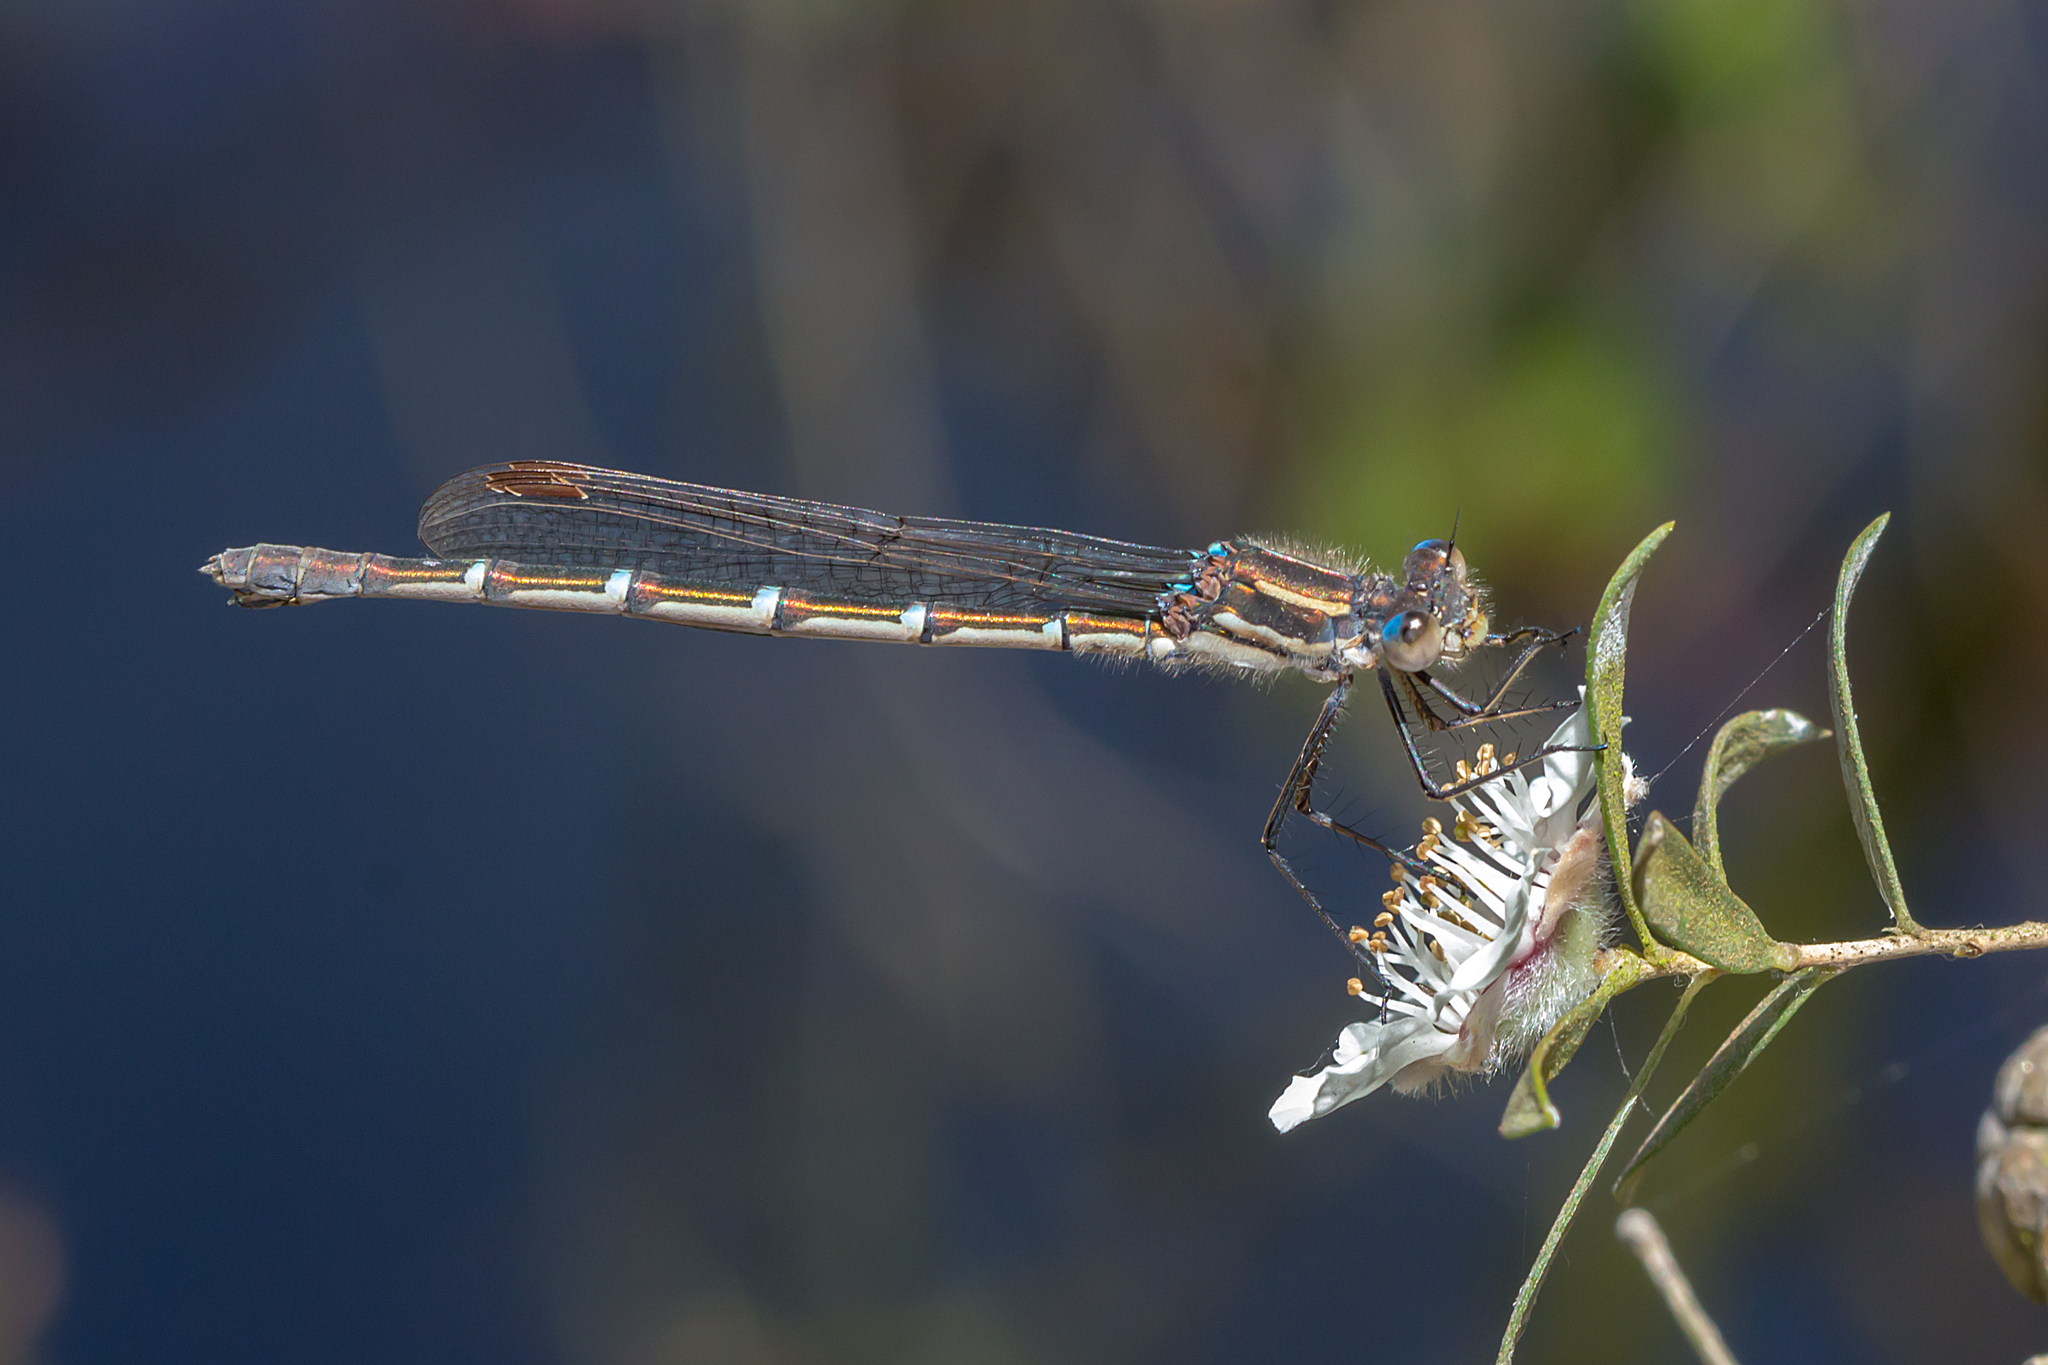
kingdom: Animalia
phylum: Arthropoda
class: Insecta
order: Odonata
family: Lestidae
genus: Austrolestes
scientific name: Austrolestes psyche
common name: Cup ringtail
